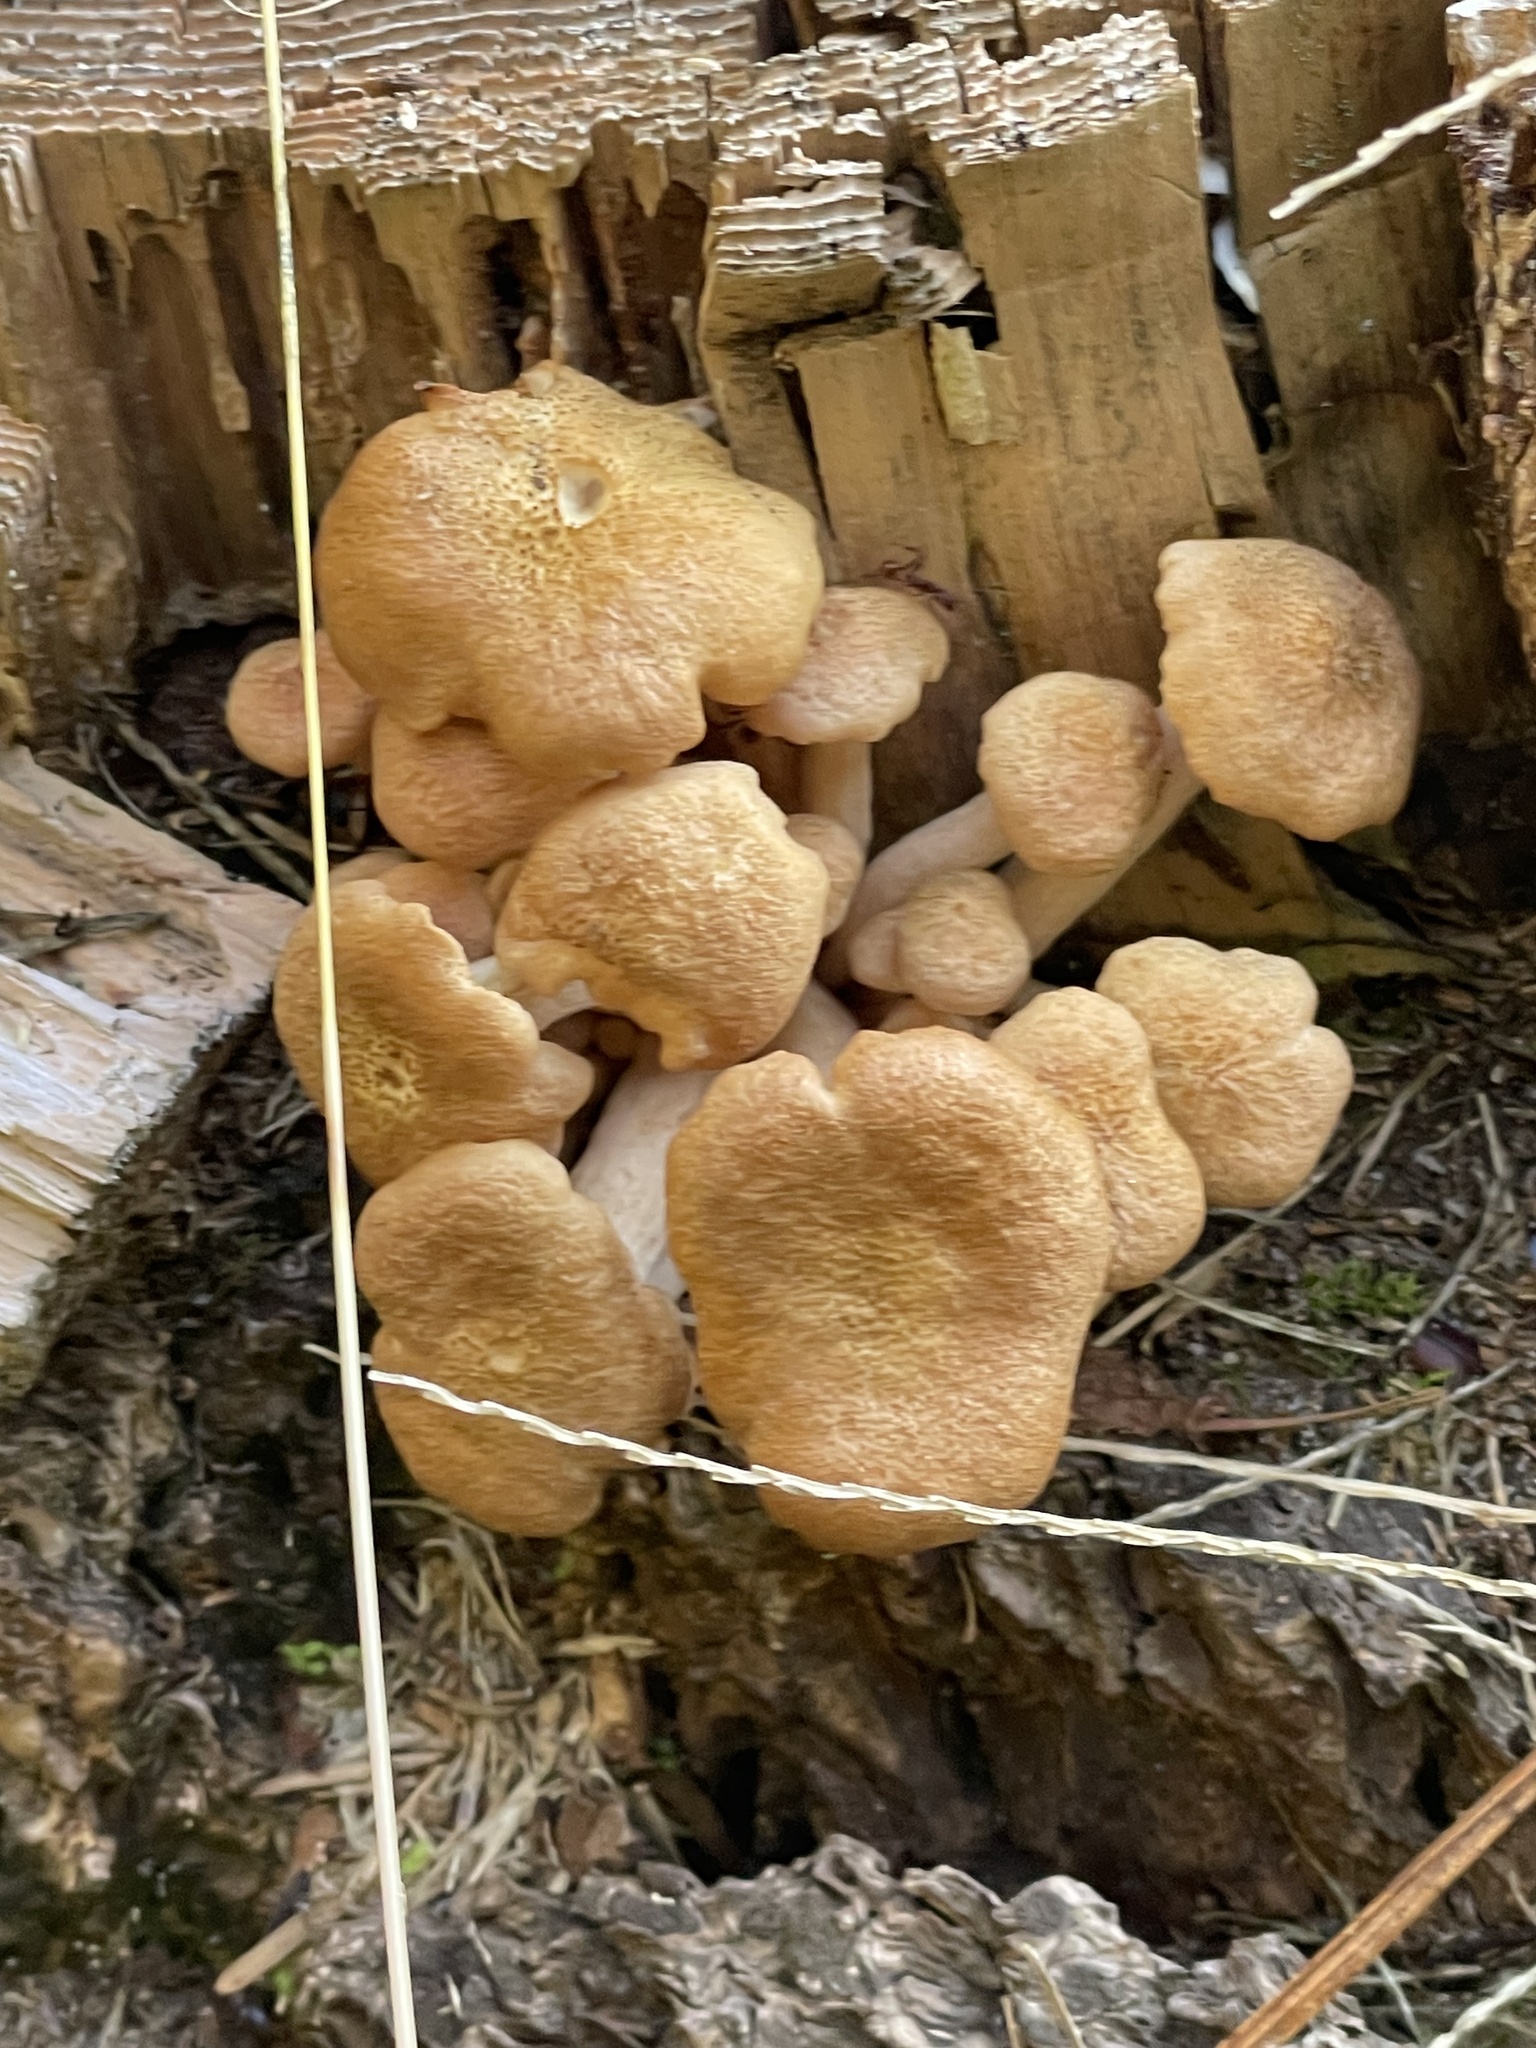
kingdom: Fungi
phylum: Basidiomycota
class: Agaricomycetes
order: Agaricales
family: Physalacriaceae
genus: Desarmillaria
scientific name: Desarmillaria caespitosa
